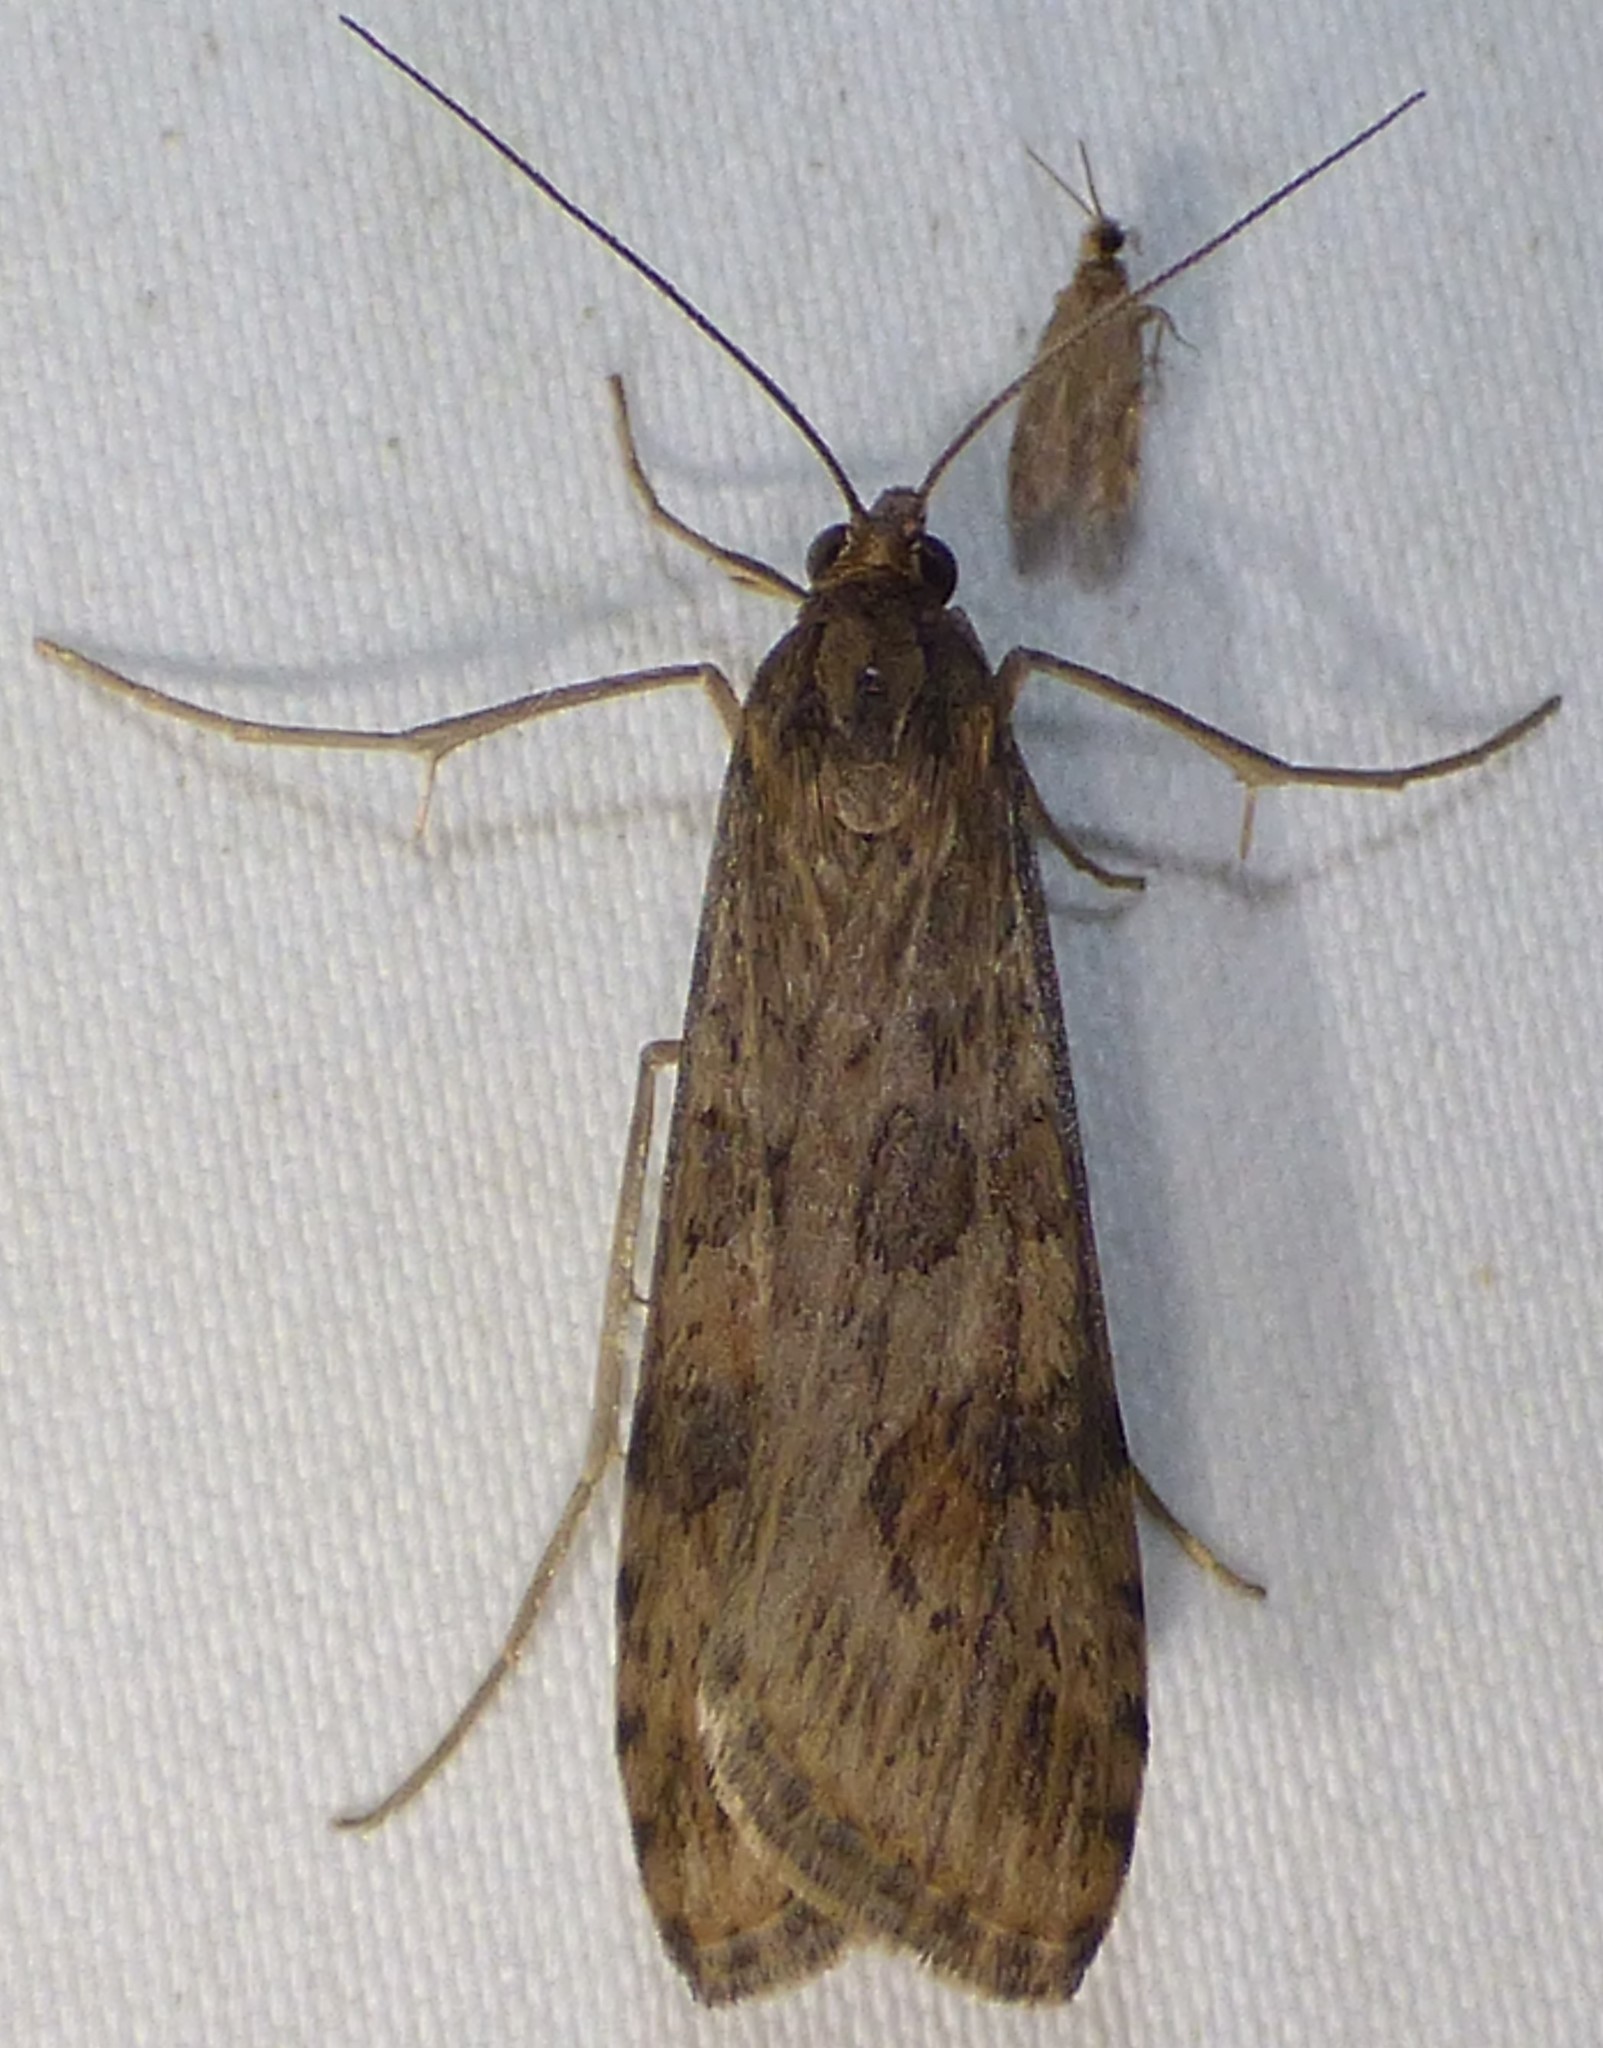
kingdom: Animalia
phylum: Arthropoda
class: Insecta
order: Lepidoptera
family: Crambidae
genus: Nomophila
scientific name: Nomophila nearctica
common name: American rush veneer
